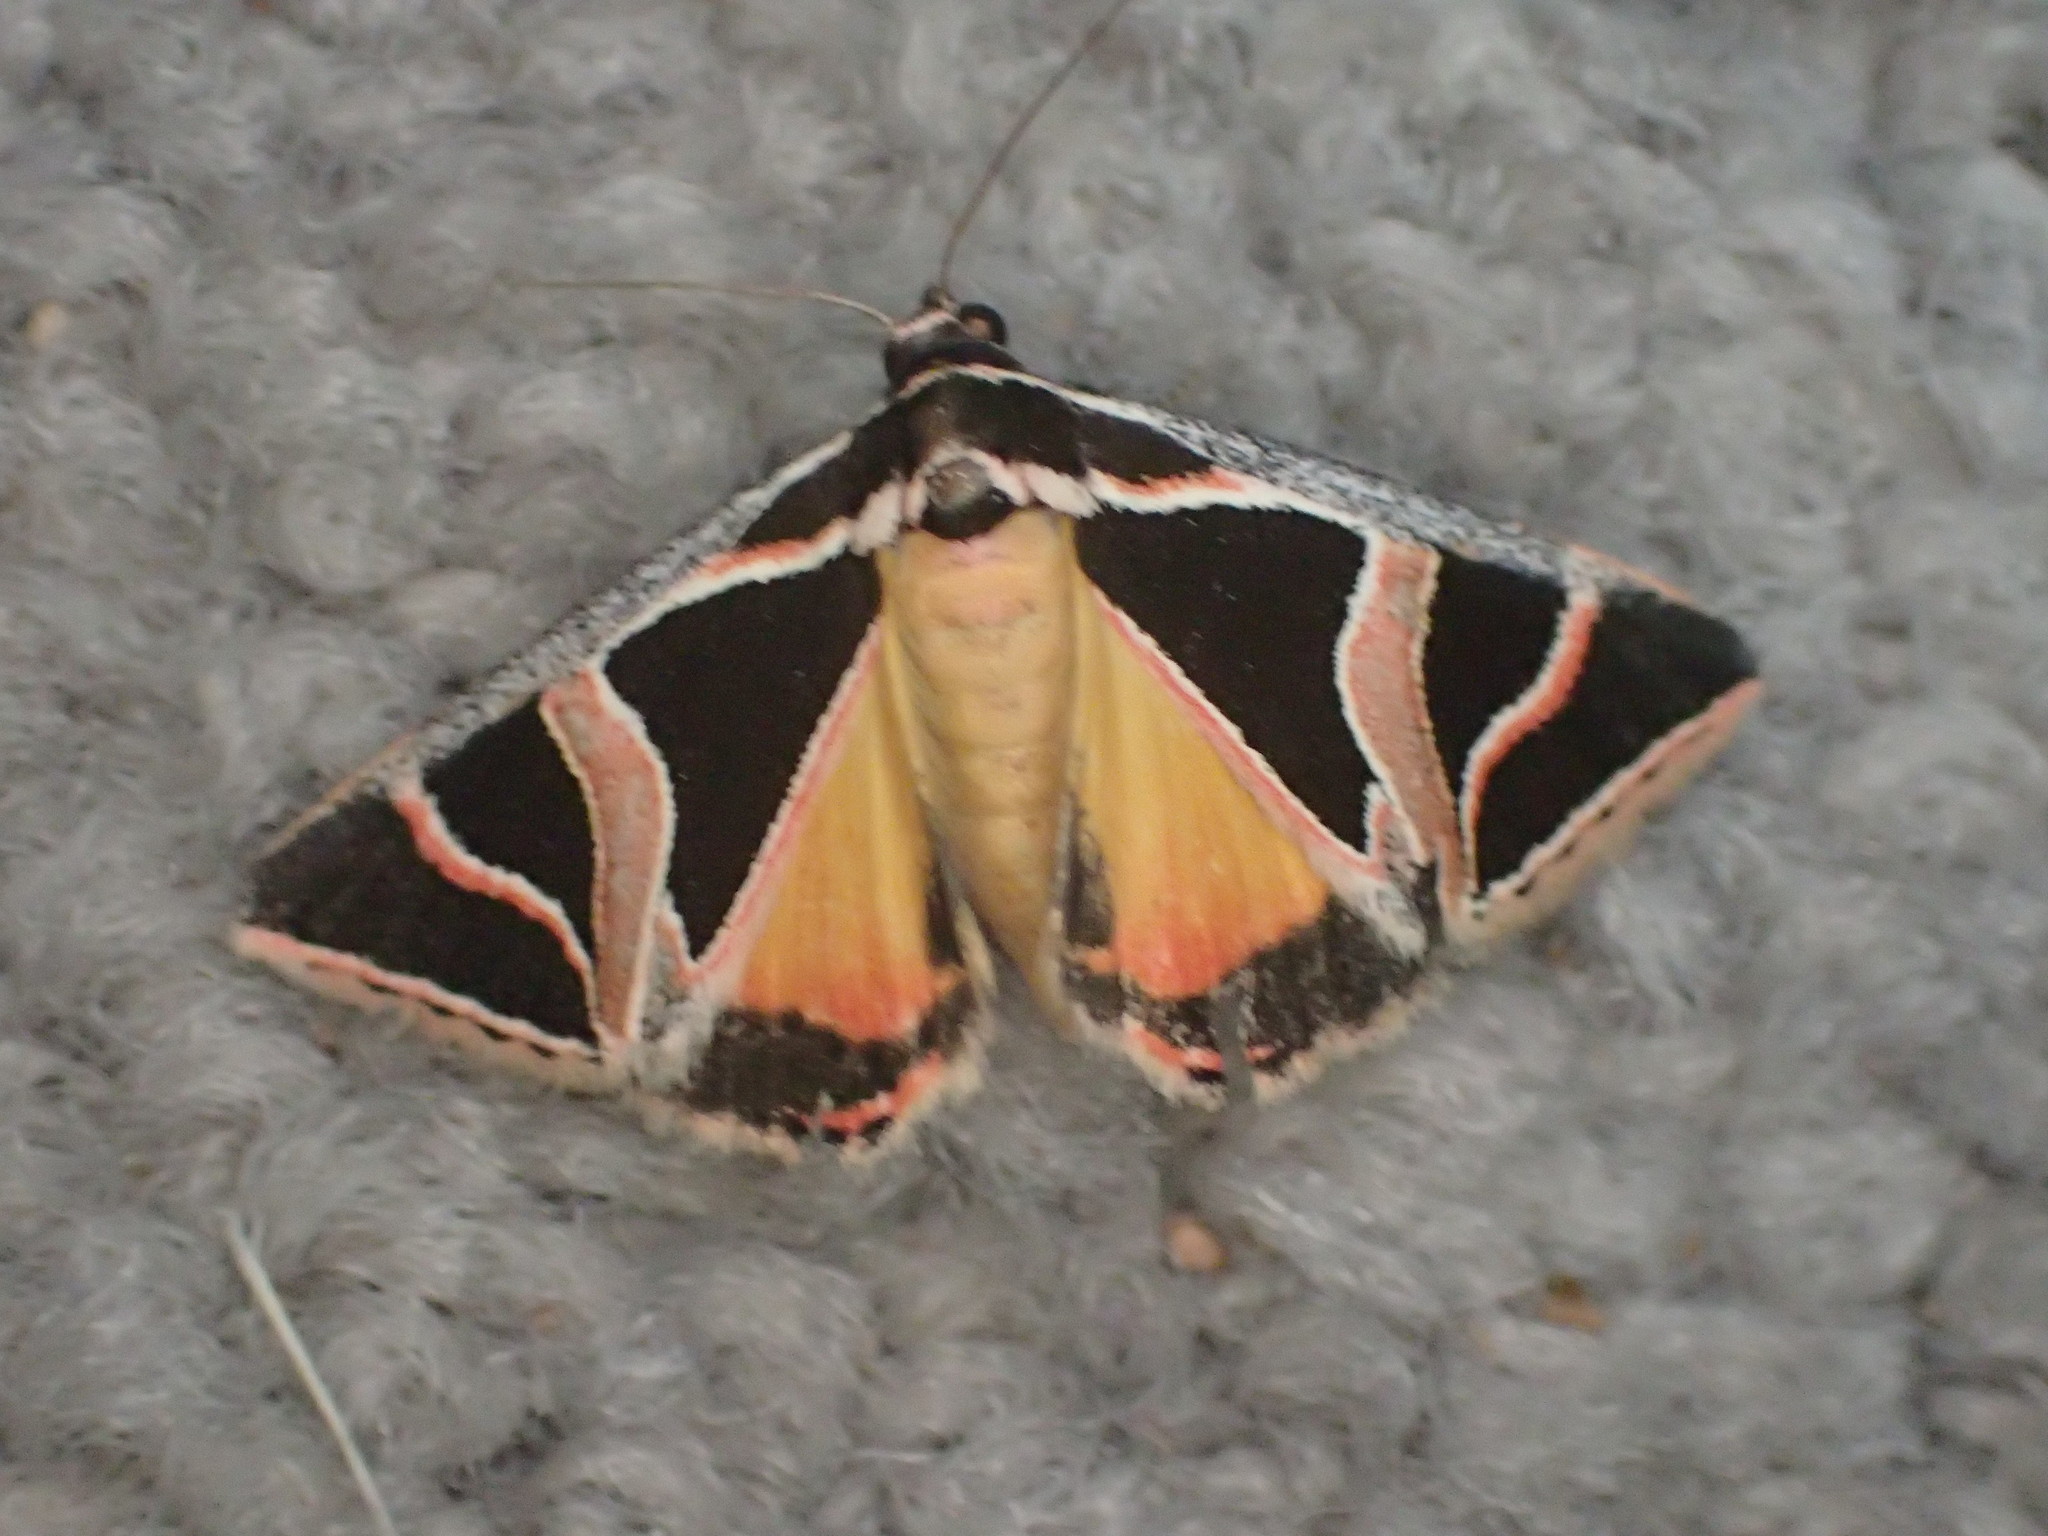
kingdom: Animalia
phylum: Arthropoda
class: Insecta
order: Lepidoptera
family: Noctuidae
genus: Xenogenes
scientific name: Xenogenes gloriosa
